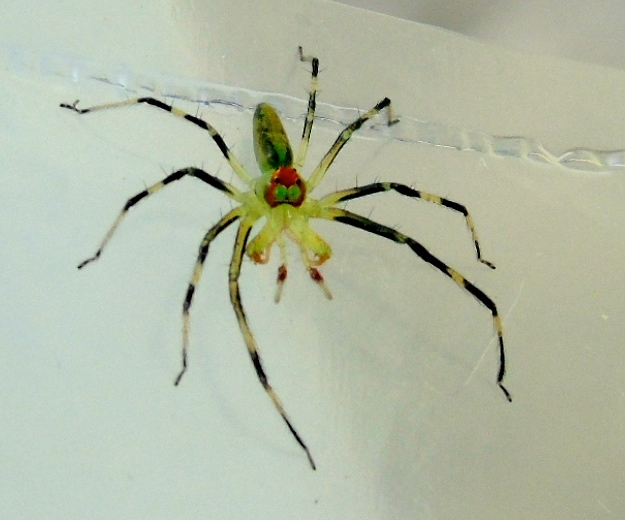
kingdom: Animalia
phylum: Arthropoda
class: Arachnida
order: Araneae
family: Salticidae
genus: Lyssomanes
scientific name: Lyssomanes
